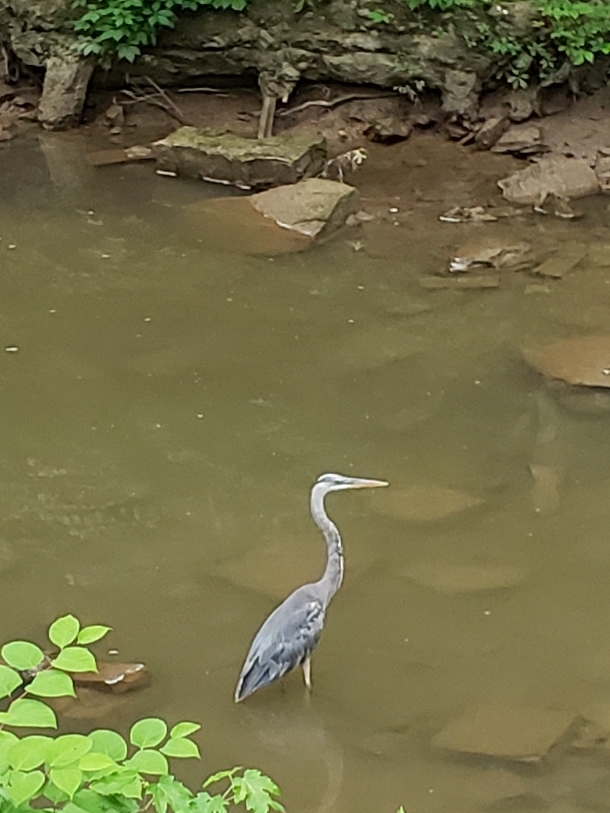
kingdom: Animalia
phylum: Chordata
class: Aves
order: Pelecaniformes
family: Ardeidae
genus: Ardea
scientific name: Ardea herodias
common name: Great blue heron
